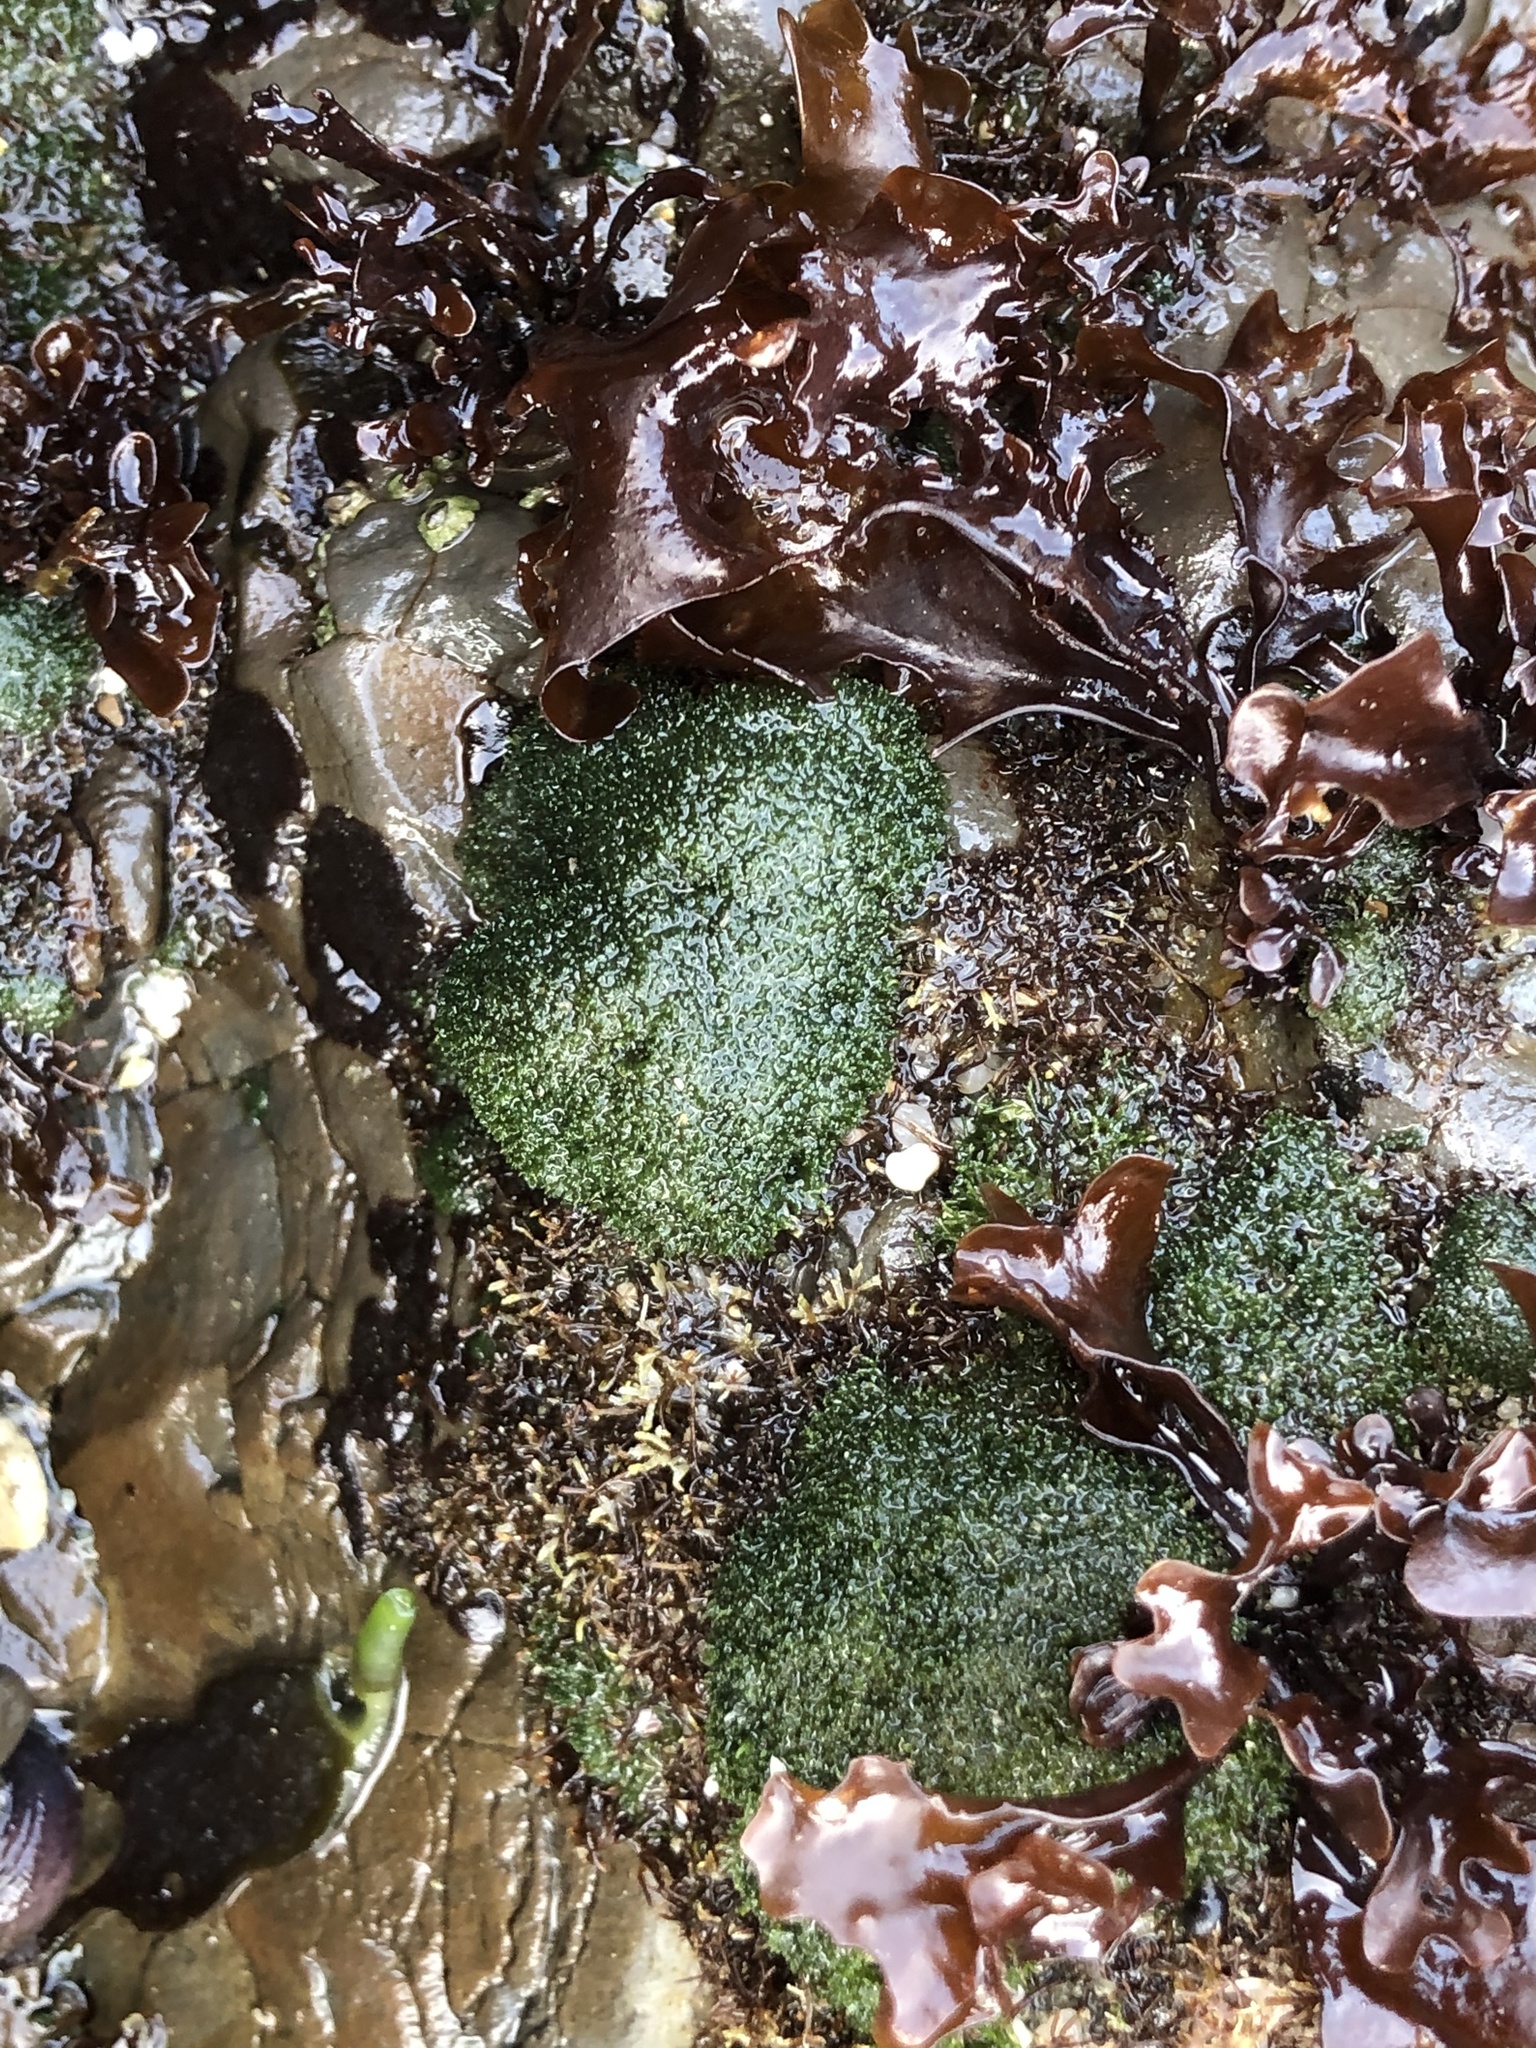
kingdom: Plantae
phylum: Chlorophyta
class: Ulvophyceae
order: Cladophorales
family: Cladophoraceae
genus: Cladophora
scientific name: Cladophora columbiana
